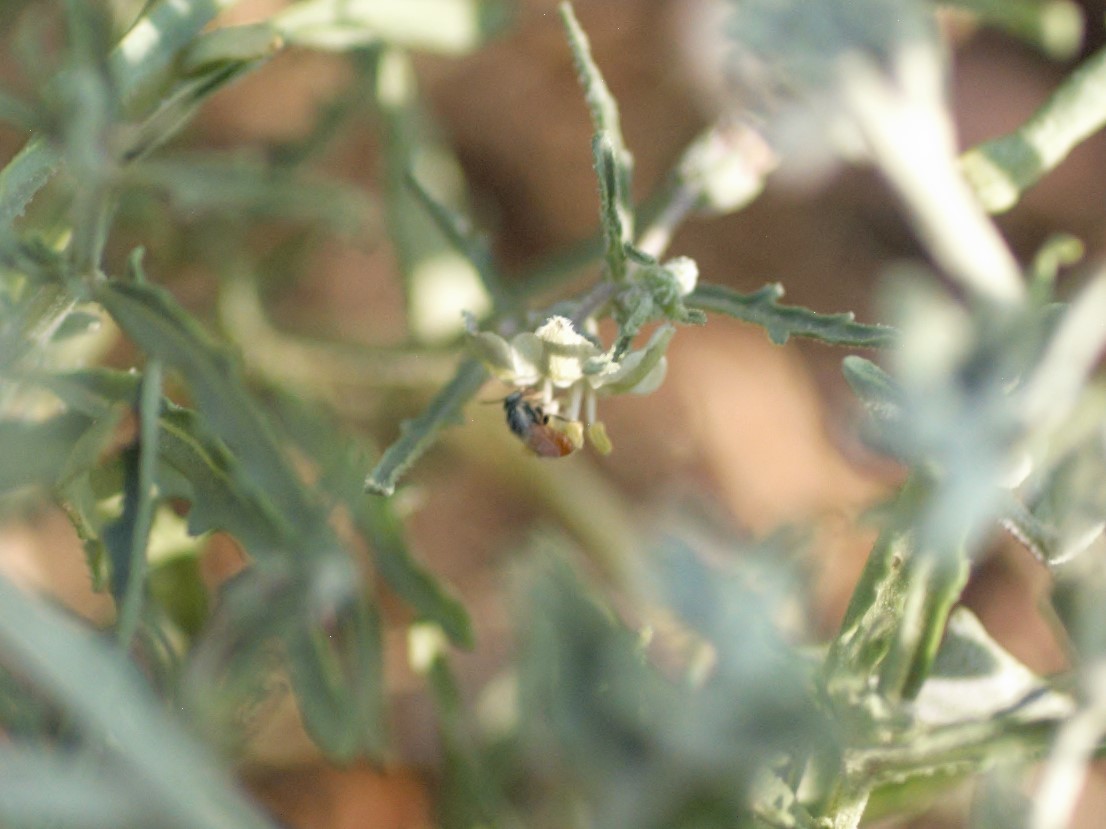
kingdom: Animalia
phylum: Arthropoda
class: Insecta
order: Hymenoptera
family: Andrenidae
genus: Perdita
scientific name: Perdita chamaesarachae
